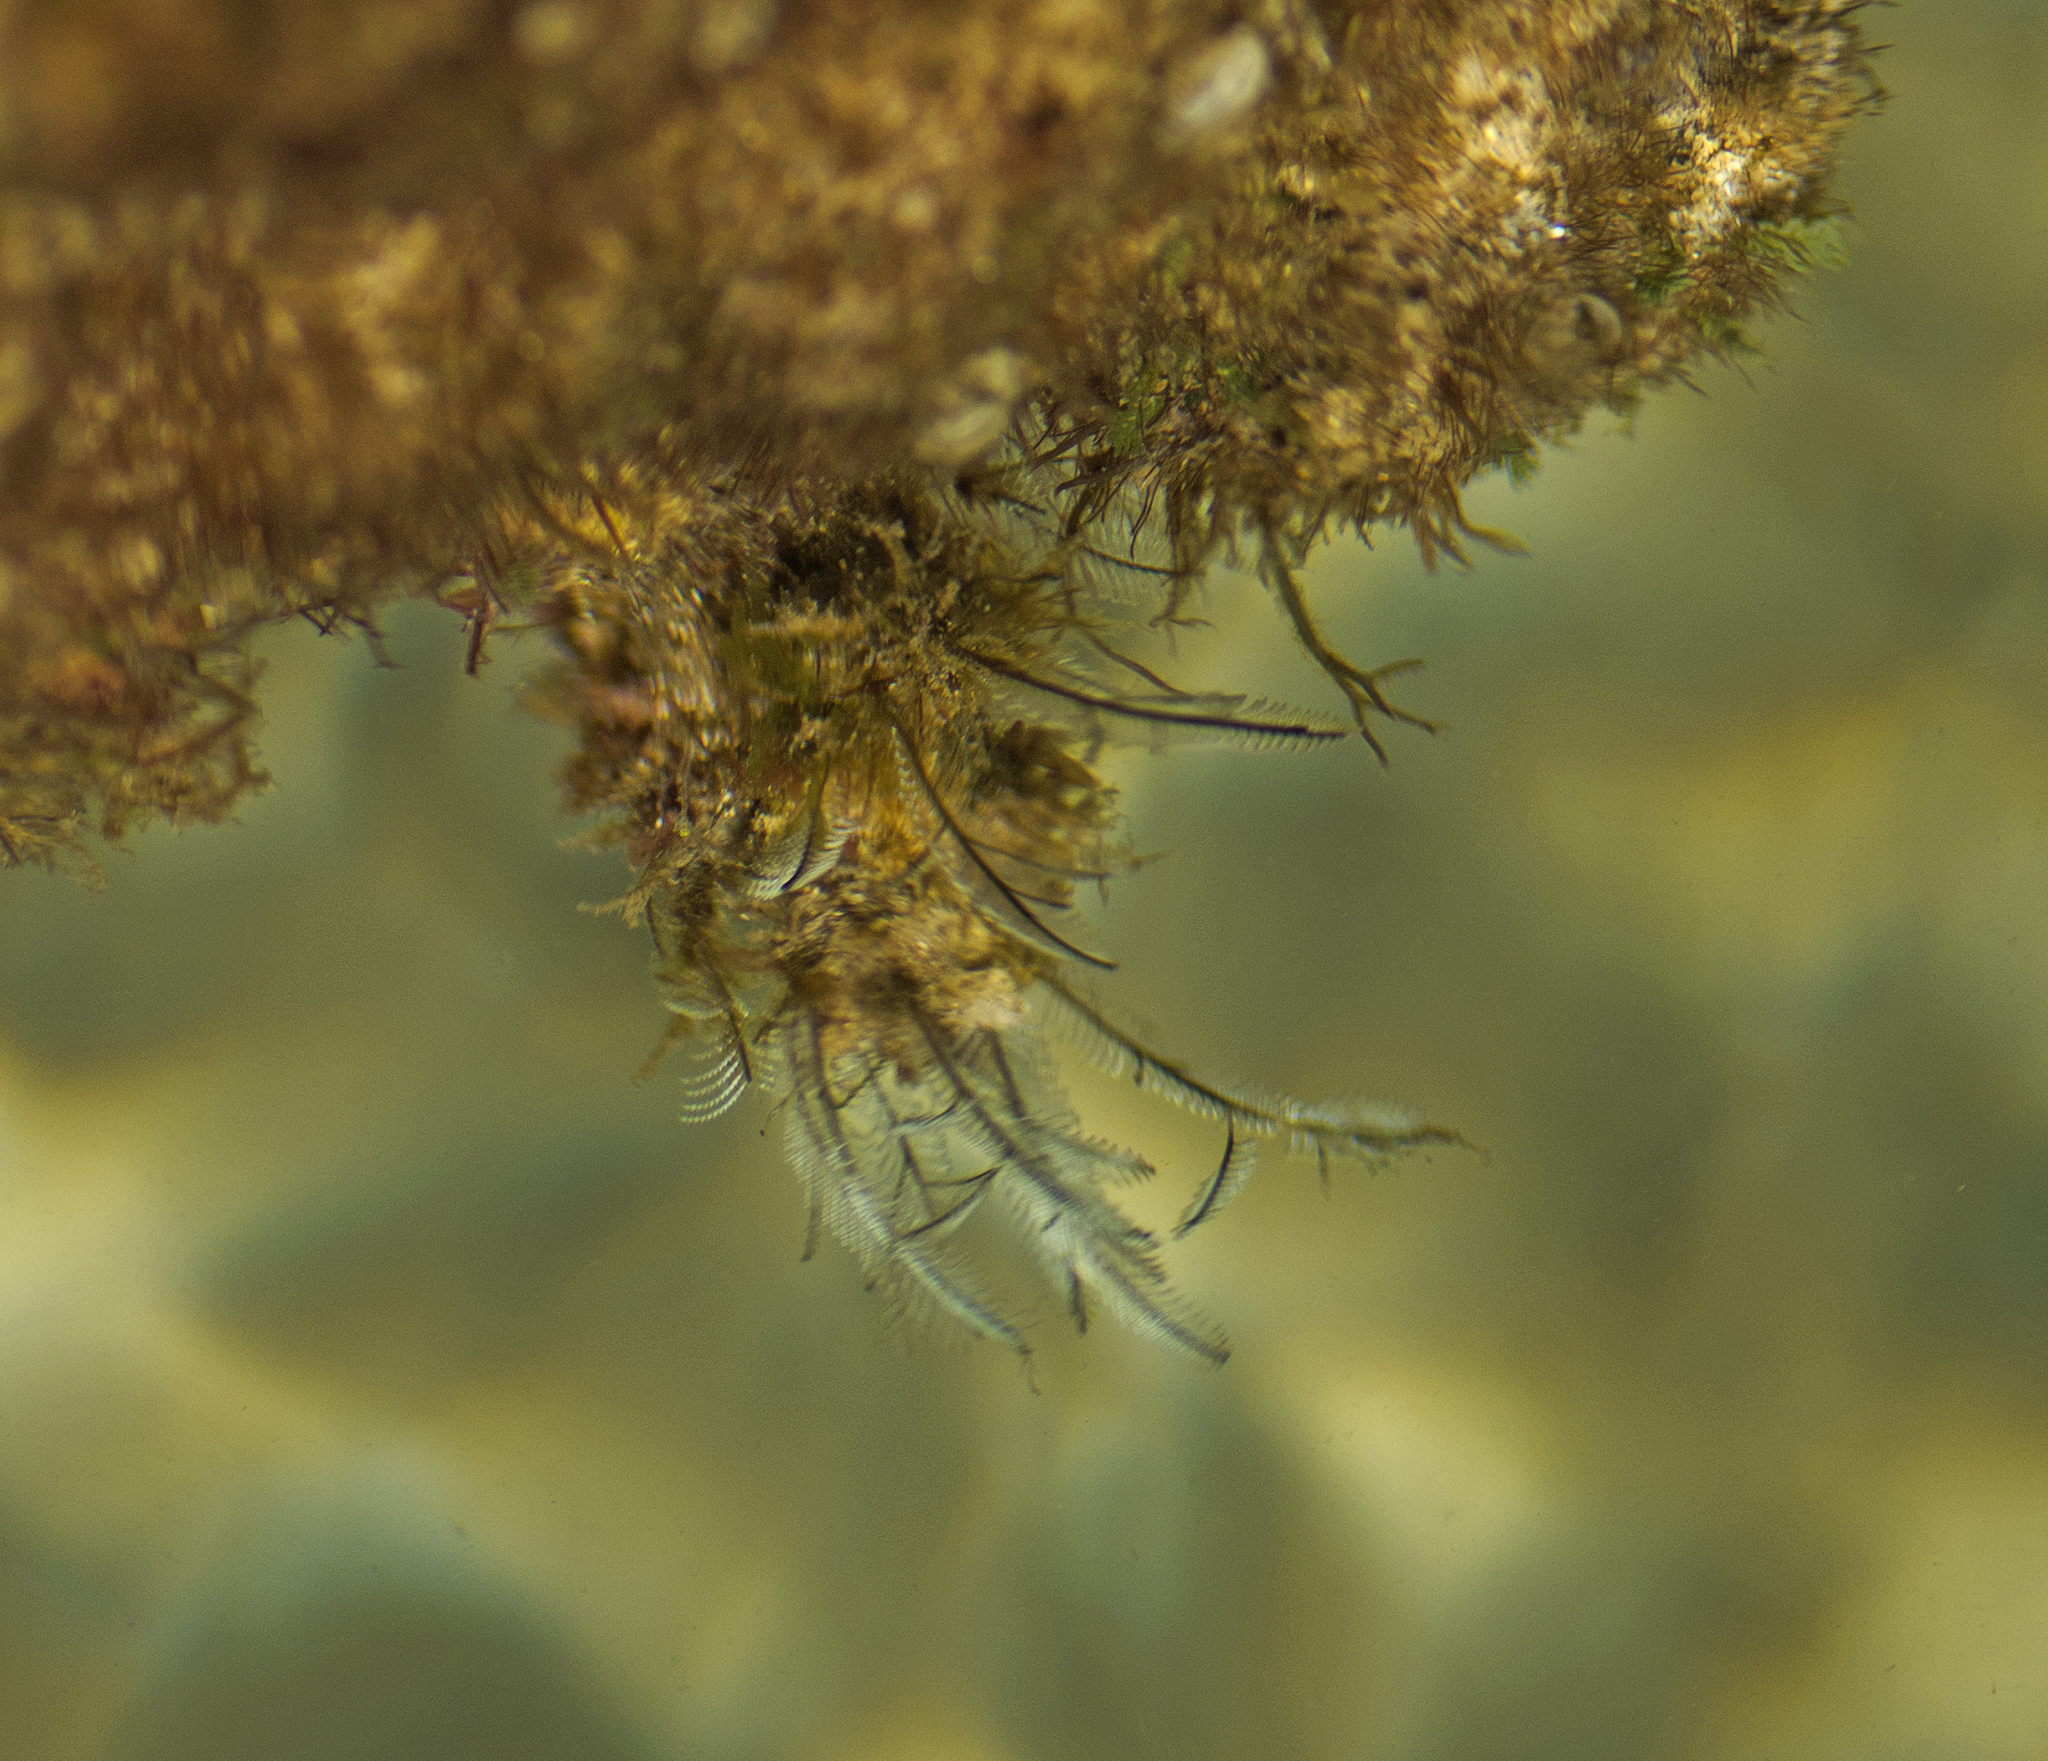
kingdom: Animalia
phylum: Cnidaria
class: Hydrozoa
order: Leptothecata
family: Aglaopheniidae
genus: Macrorhynchia
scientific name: Macrorhynchia philippina
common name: Stinging hydroid
